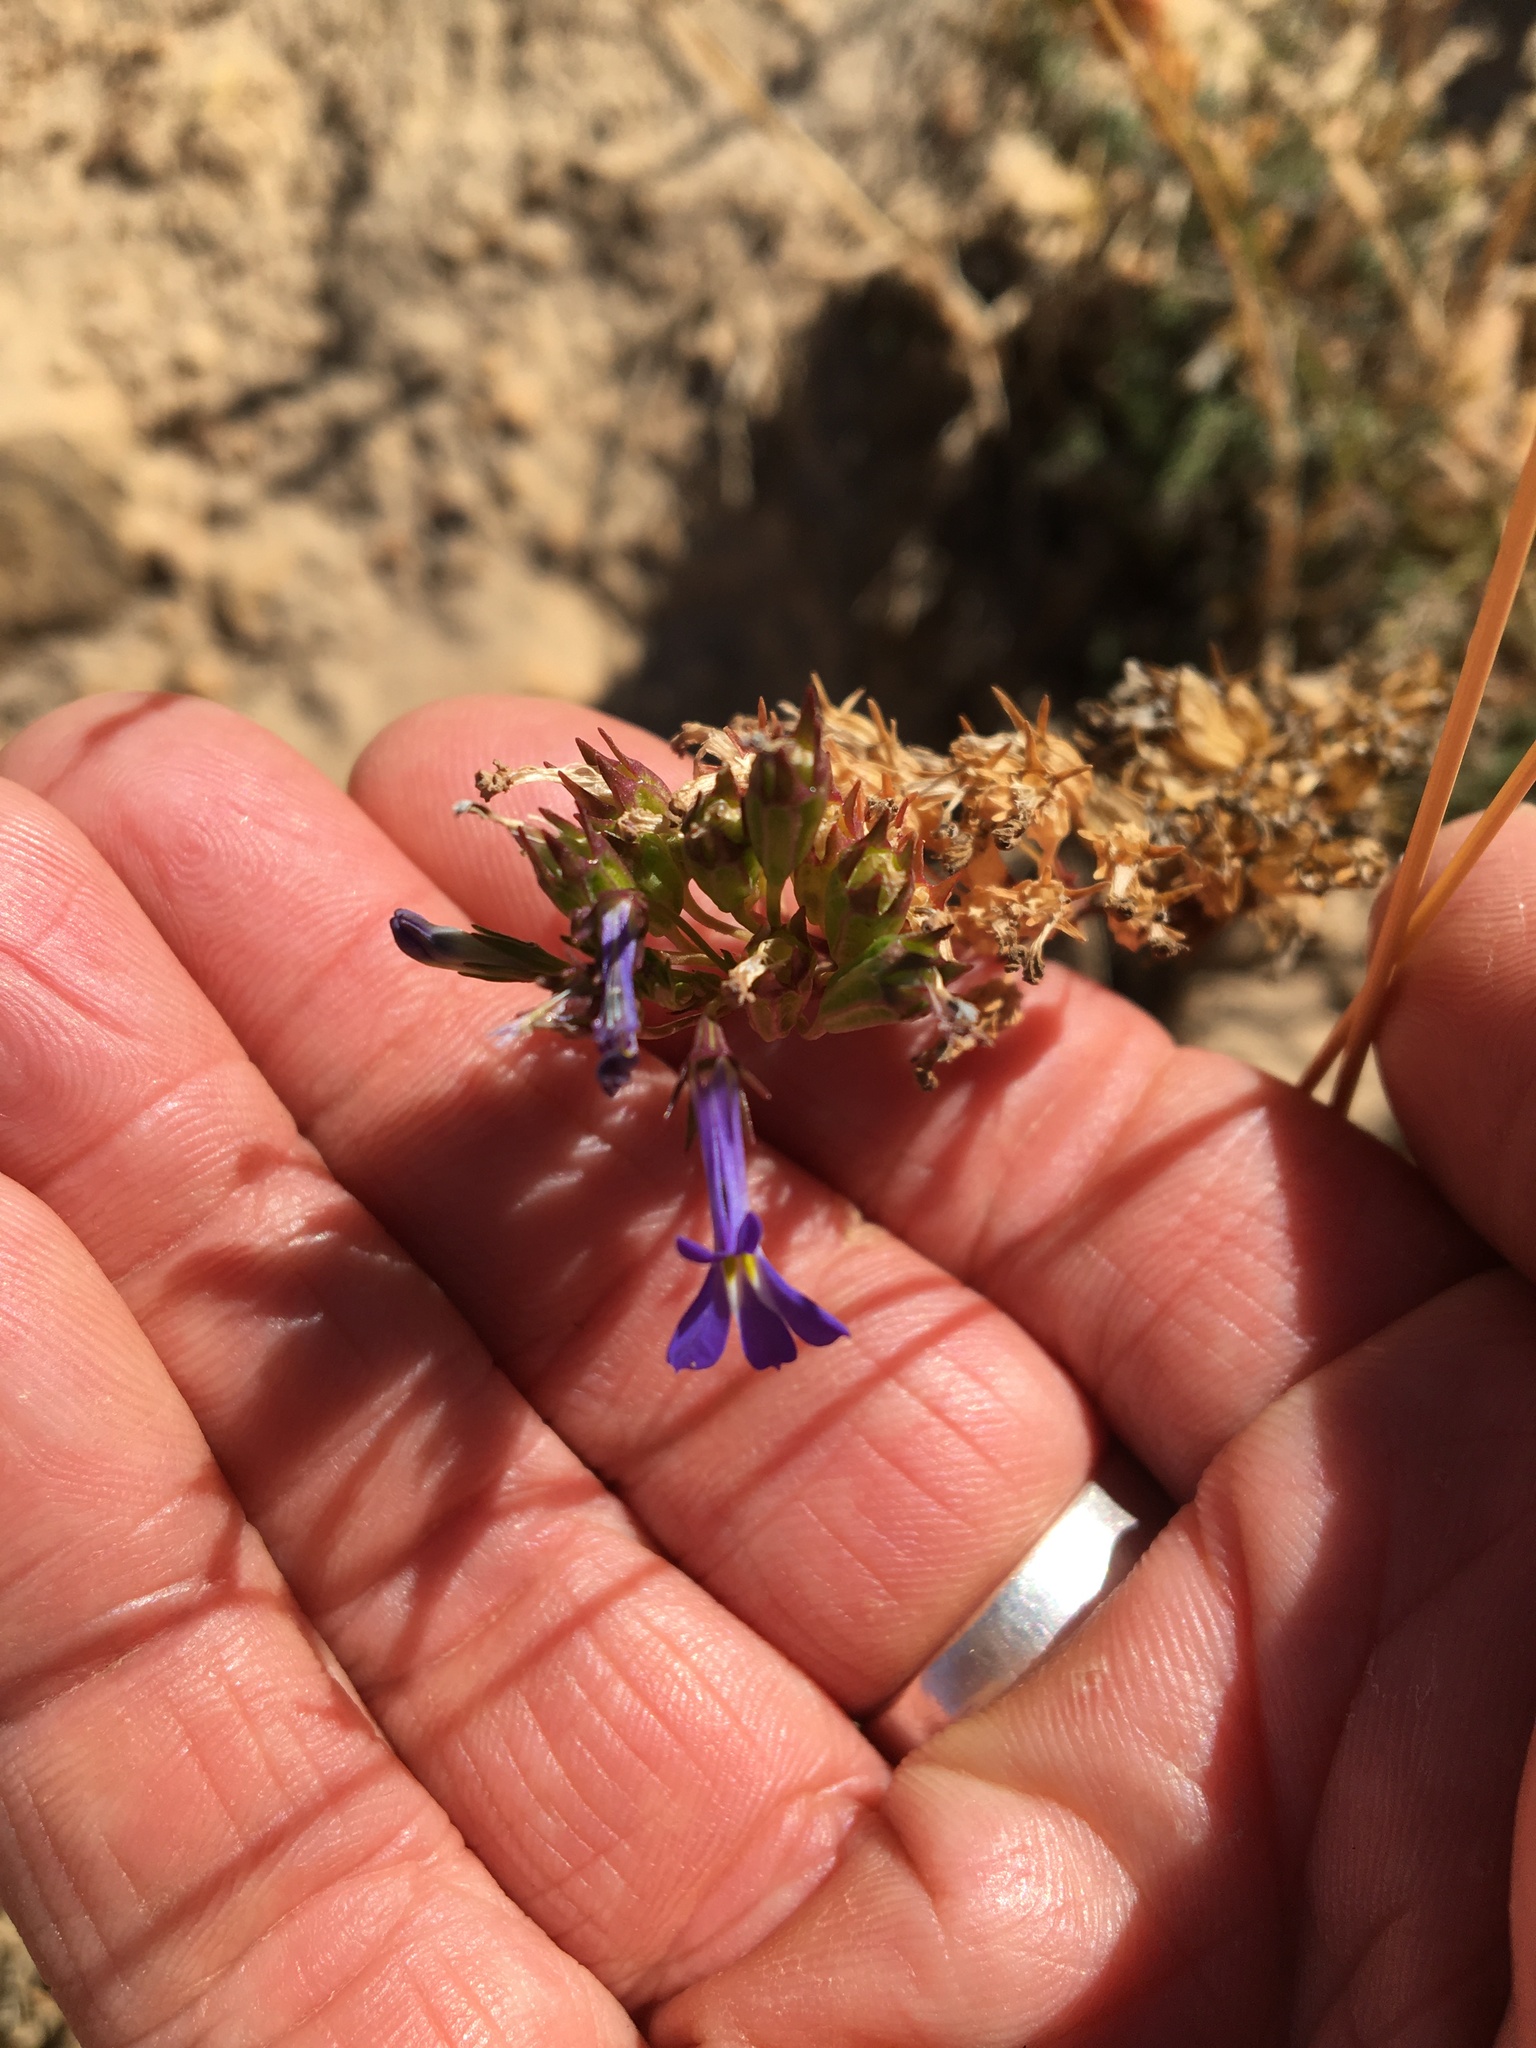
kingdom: Plantae
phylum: Tracheophyta
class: Magnoliopsida
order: Asterales
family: Campanulaceae
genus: Lobelia
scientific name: Lobelia comosa
